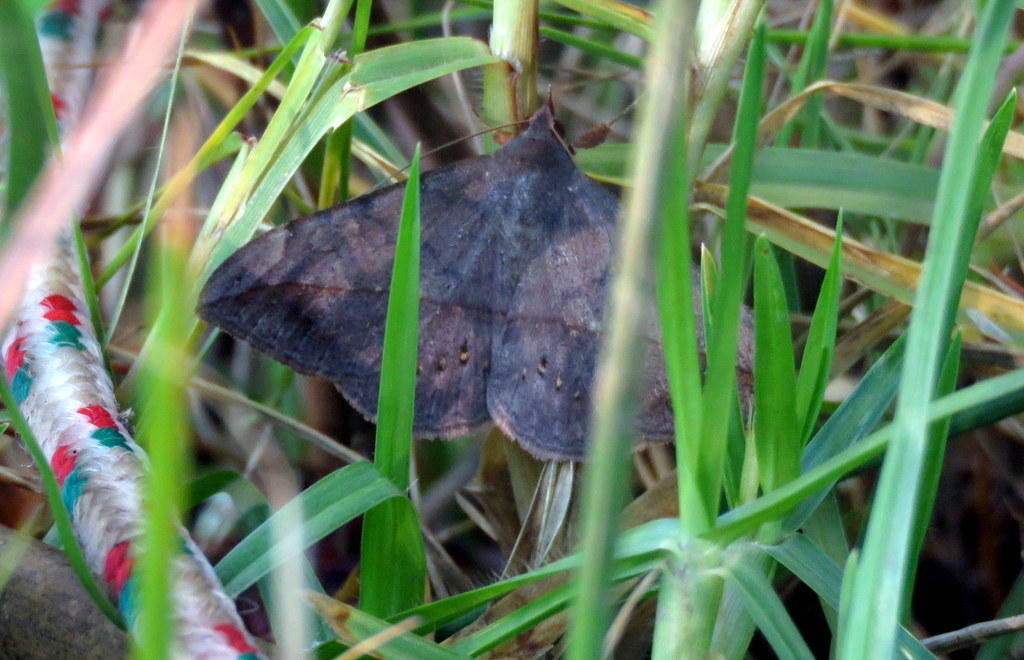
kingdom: Animalia
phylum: Arthropoda
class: Insecta
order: Lepidoptera
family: Erebidae
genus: Anticarsia
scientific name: Anticarsia gemmatalis
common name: Cutworm moth
